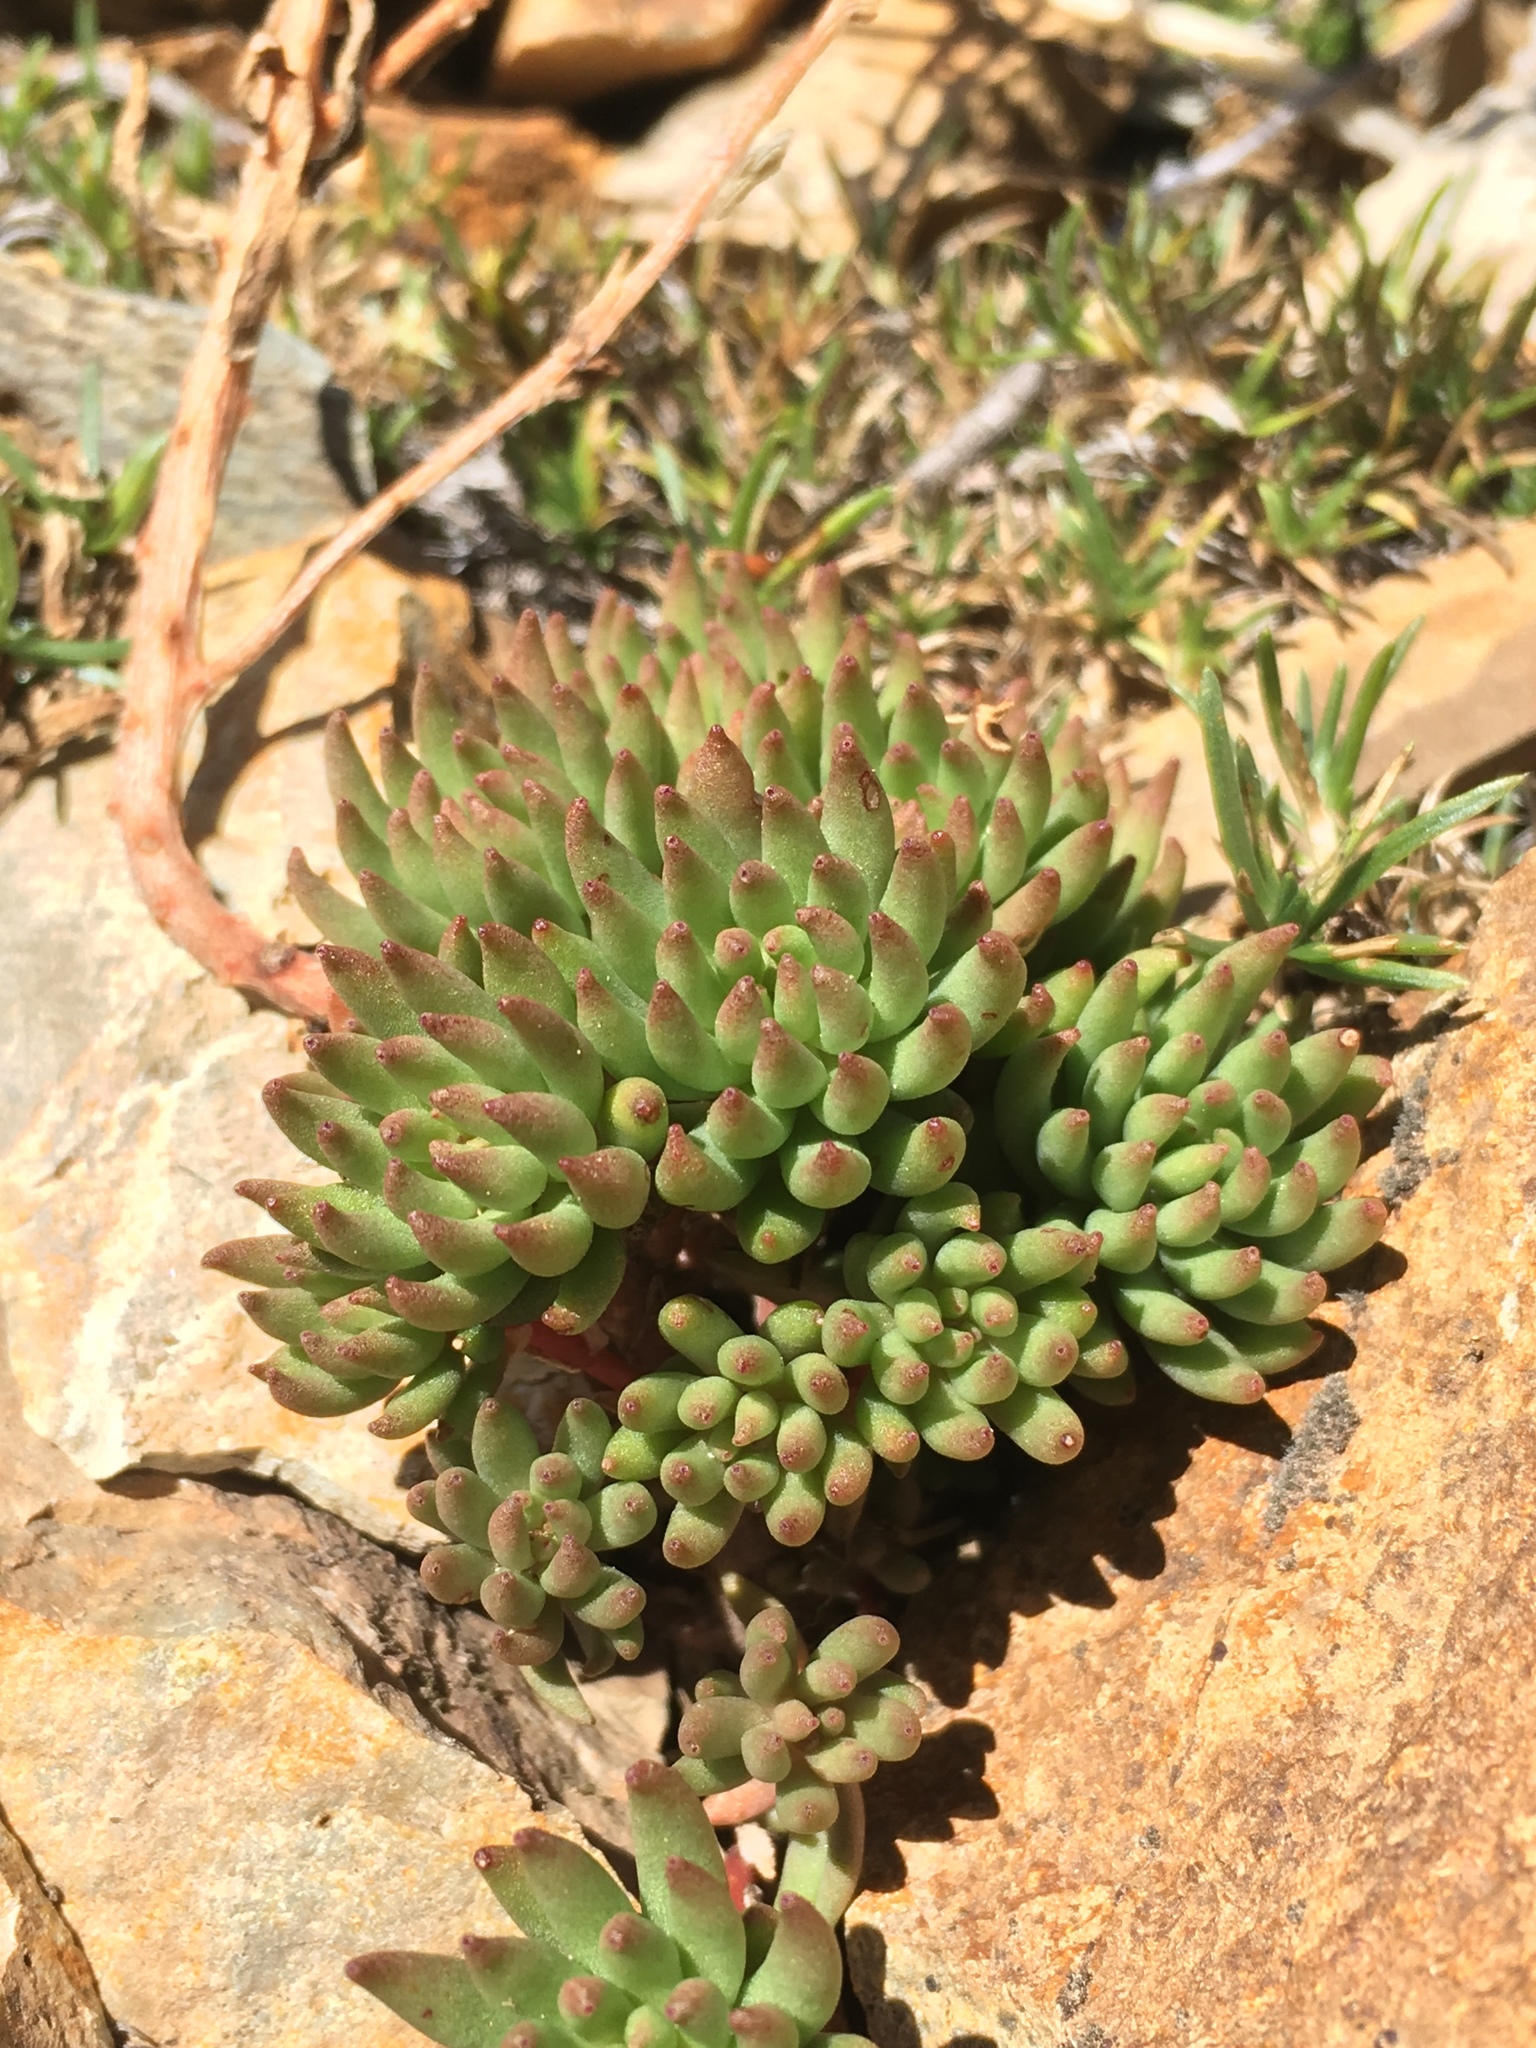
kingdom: Plantae
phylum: Tracheophyta
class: Magnoliopsida
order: Saxifragales
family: Crassulaceae
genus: Sedum
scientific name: Sedum lanceolatum
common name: Common stonecrop
